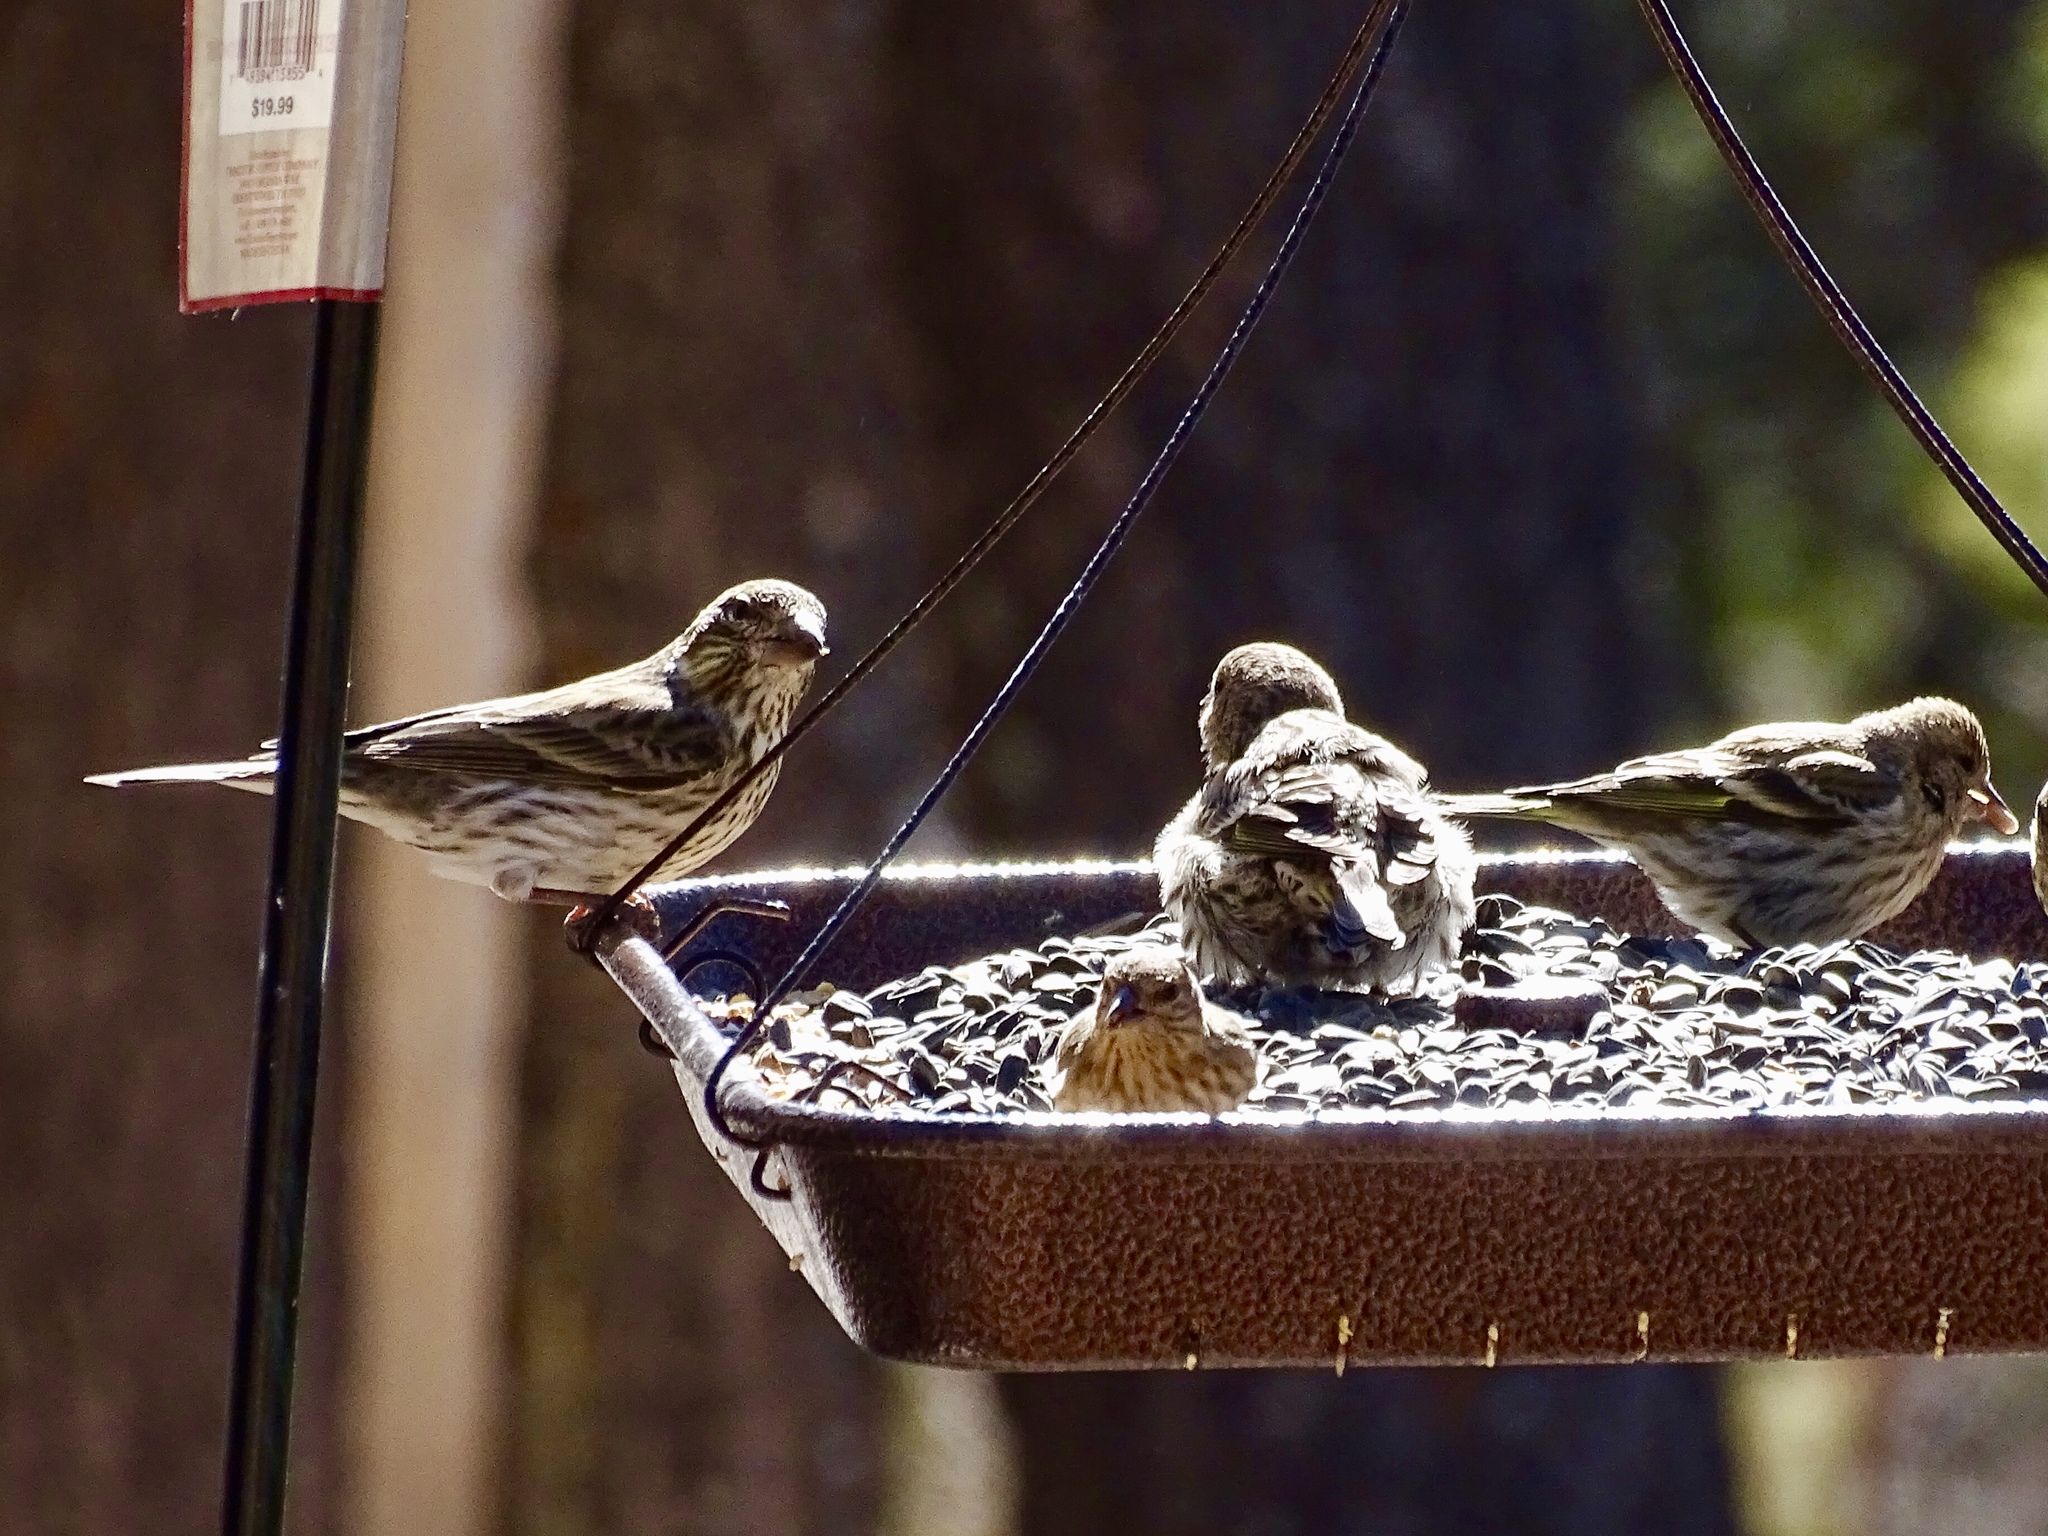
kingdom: Animalia
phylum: Chordata
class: Aves
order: Passeriformes
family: Fringillidae
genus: Haemorhous
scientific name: Haemorhous cassinii
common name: Cassin's finch
